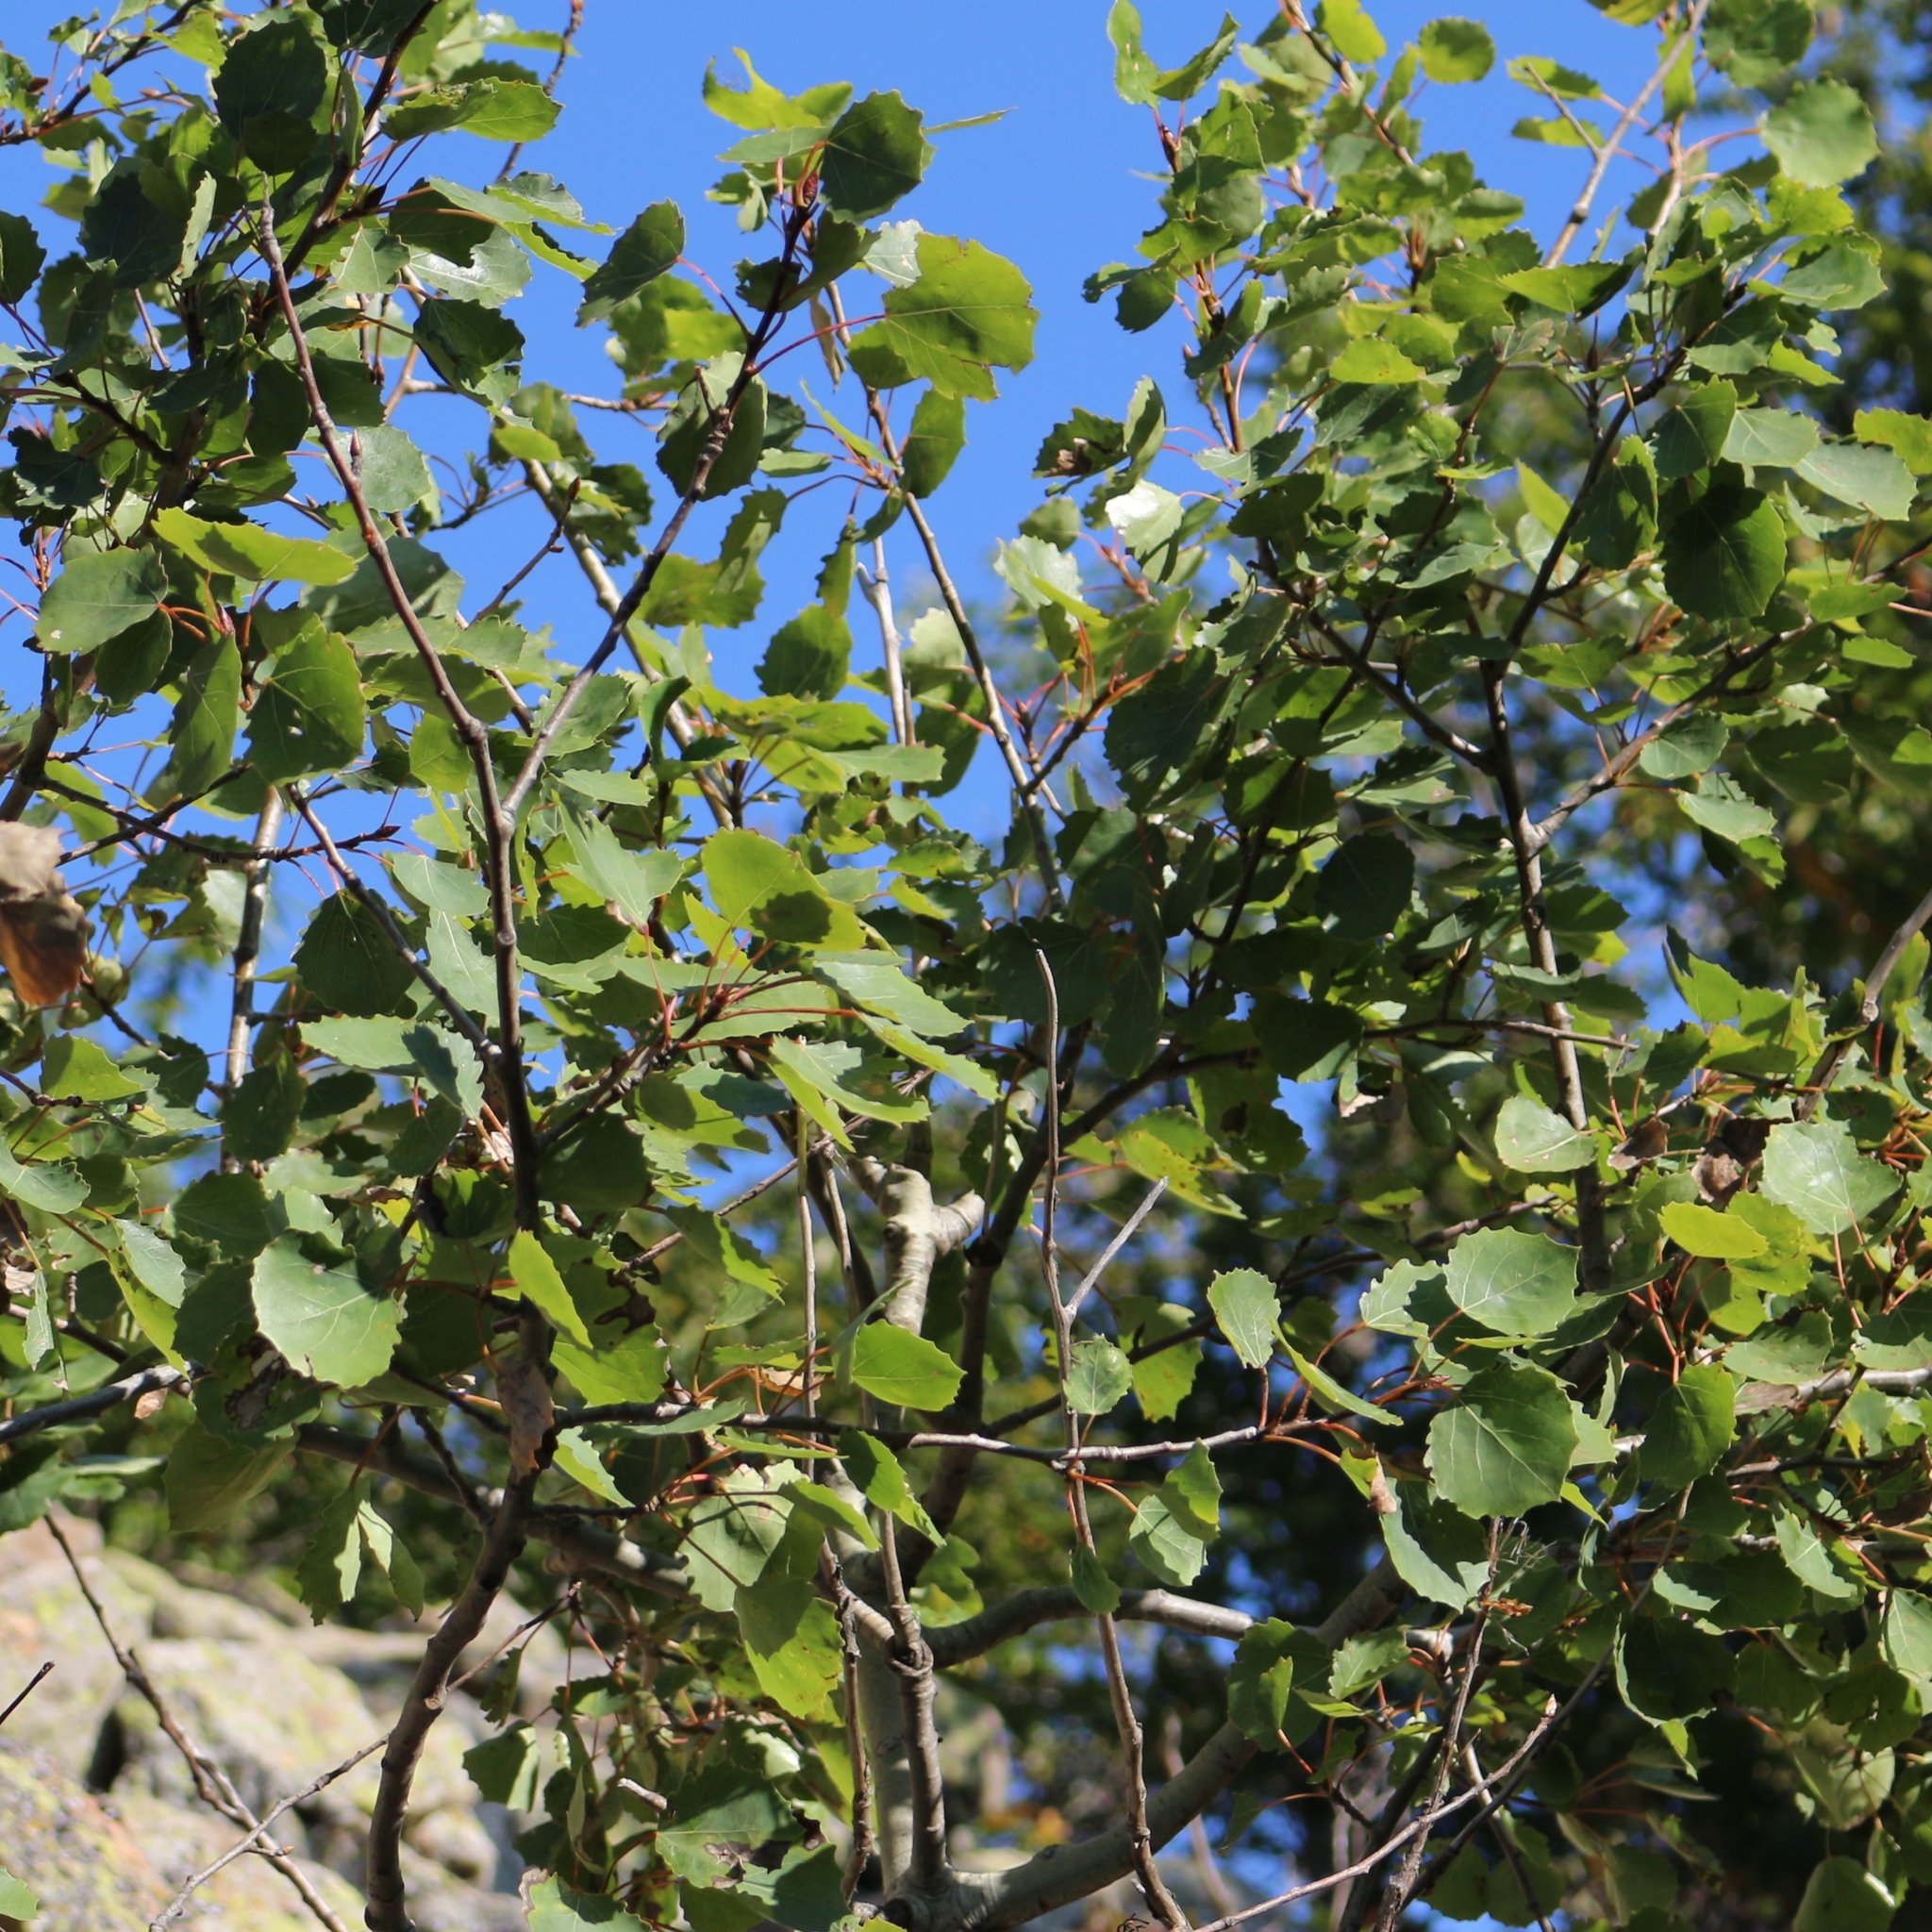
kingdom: Plantae
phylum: Tracheophyta
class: Magnoliopsida
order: Malpighiales
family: Salicaceae
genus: Populus
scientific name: Populus tremula
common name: European aspen
